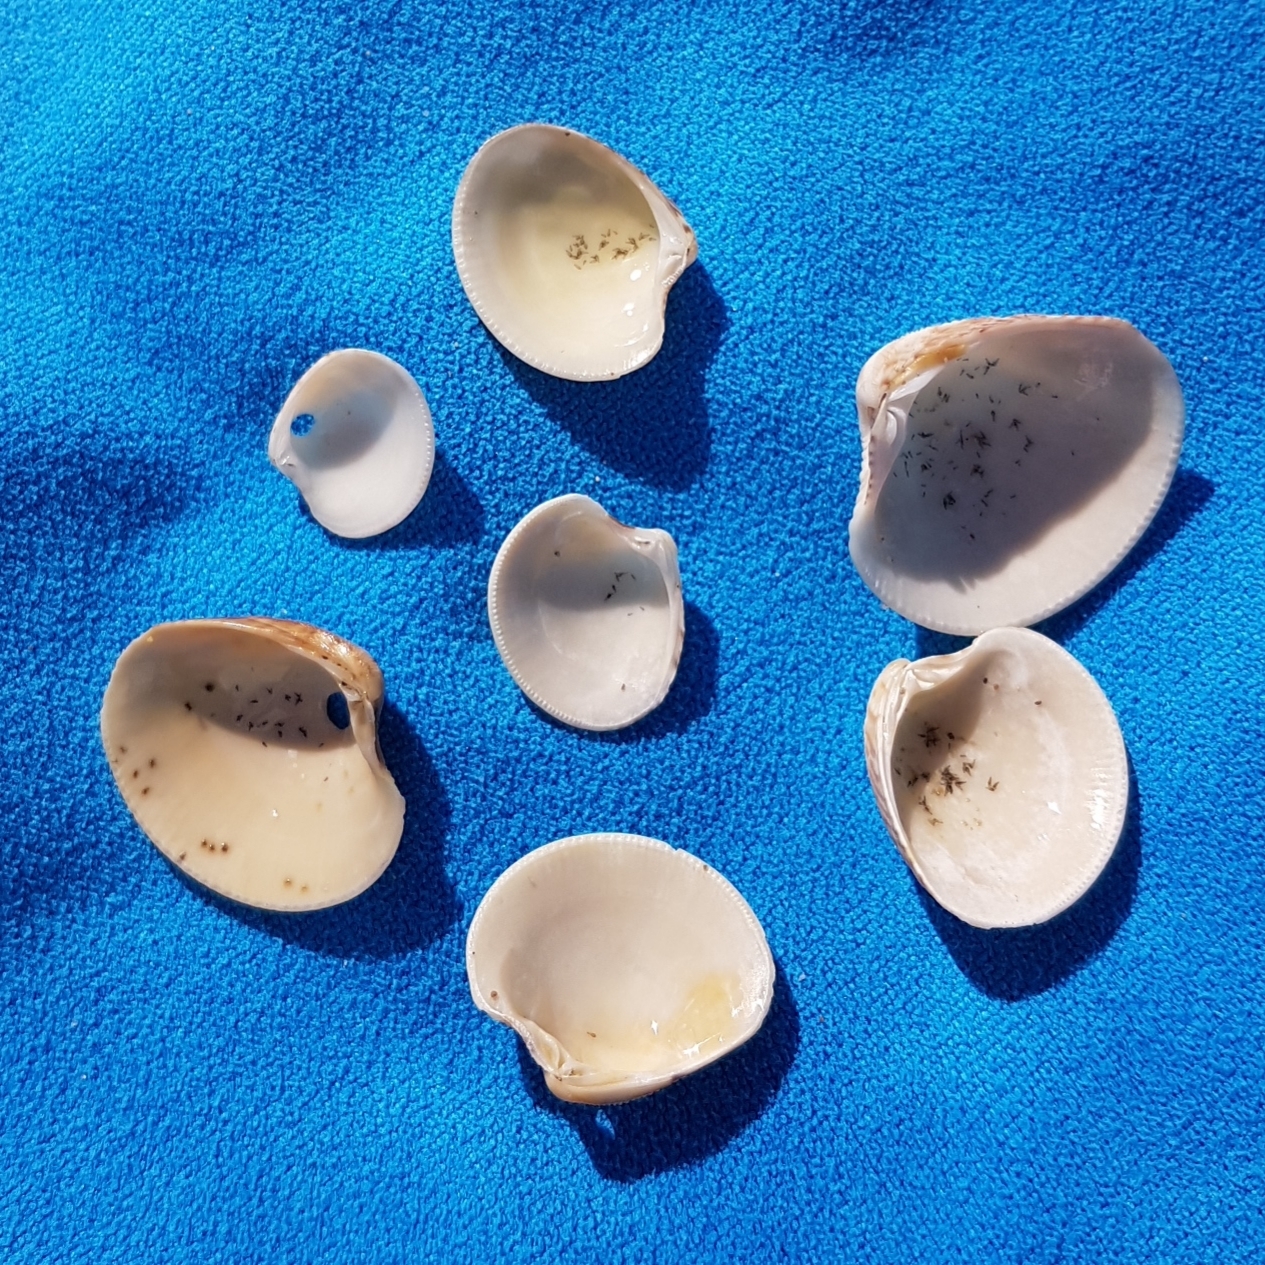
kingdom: Animalia
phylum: Mollusca
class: Bivalvia
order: Venerida
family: Veneridae
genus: Chamelea
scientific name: Chamelea gallina
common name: Chicken venus
